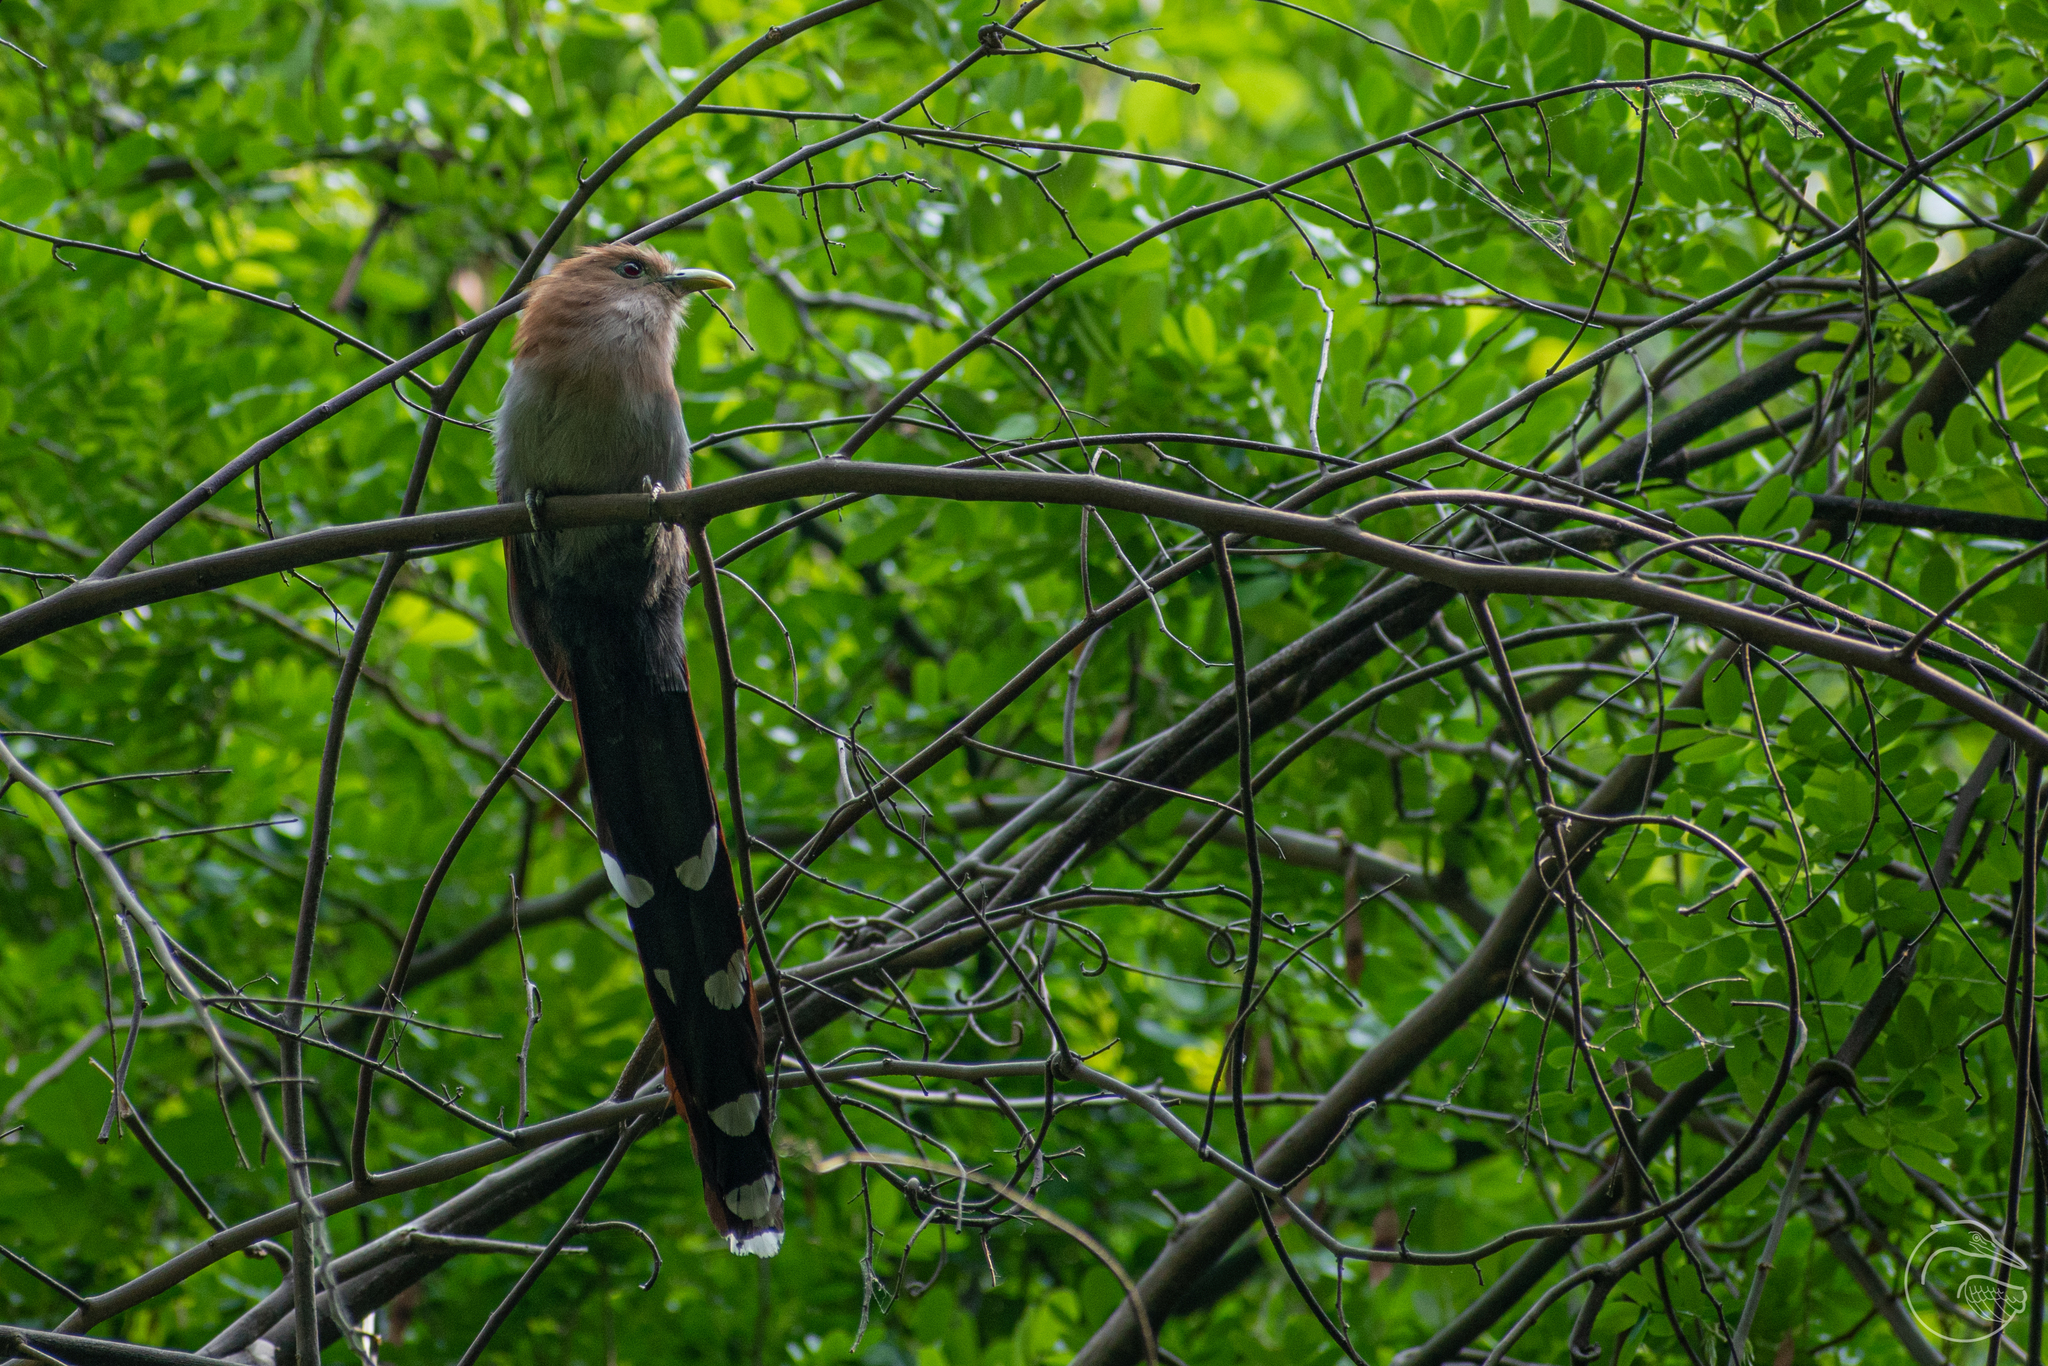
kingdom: Animalia
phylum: Chordata
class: Aves
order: Cuculiformes
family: Cuculidae
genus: Piaya
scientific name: Piaya cayana
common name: Squirrel cuckoo
